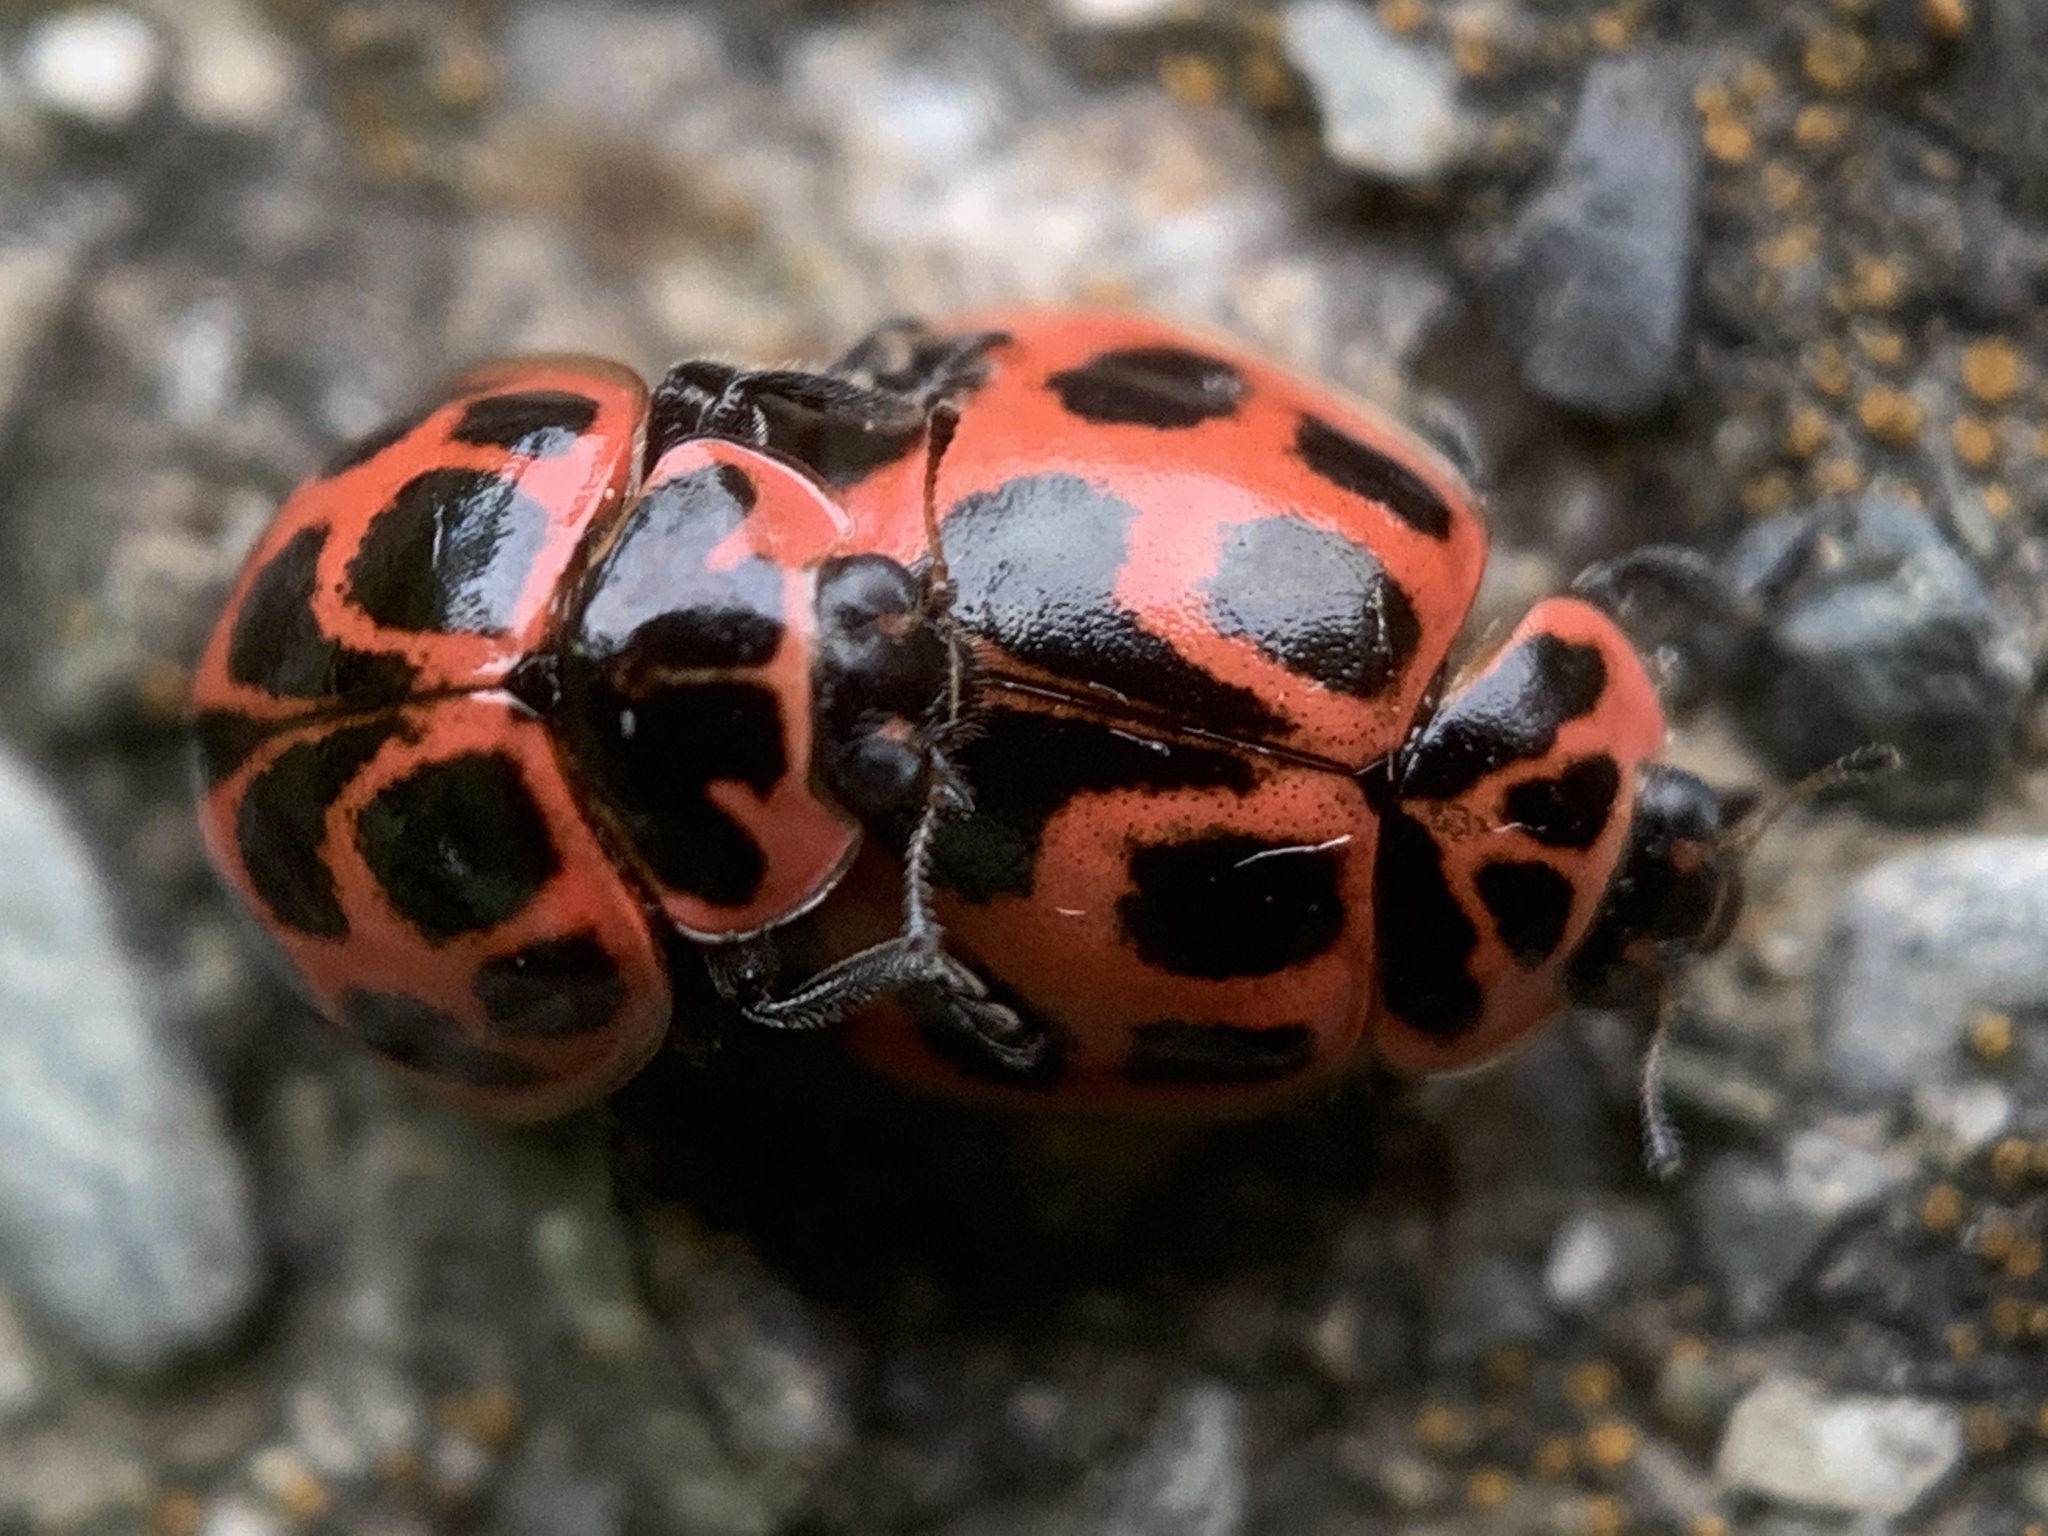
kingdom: Animalia
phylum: Arthropoda
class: Insecta
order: Coleoptera
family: Coccinellidae
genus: Neoharmonia
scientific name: Neoharmonia venusta
